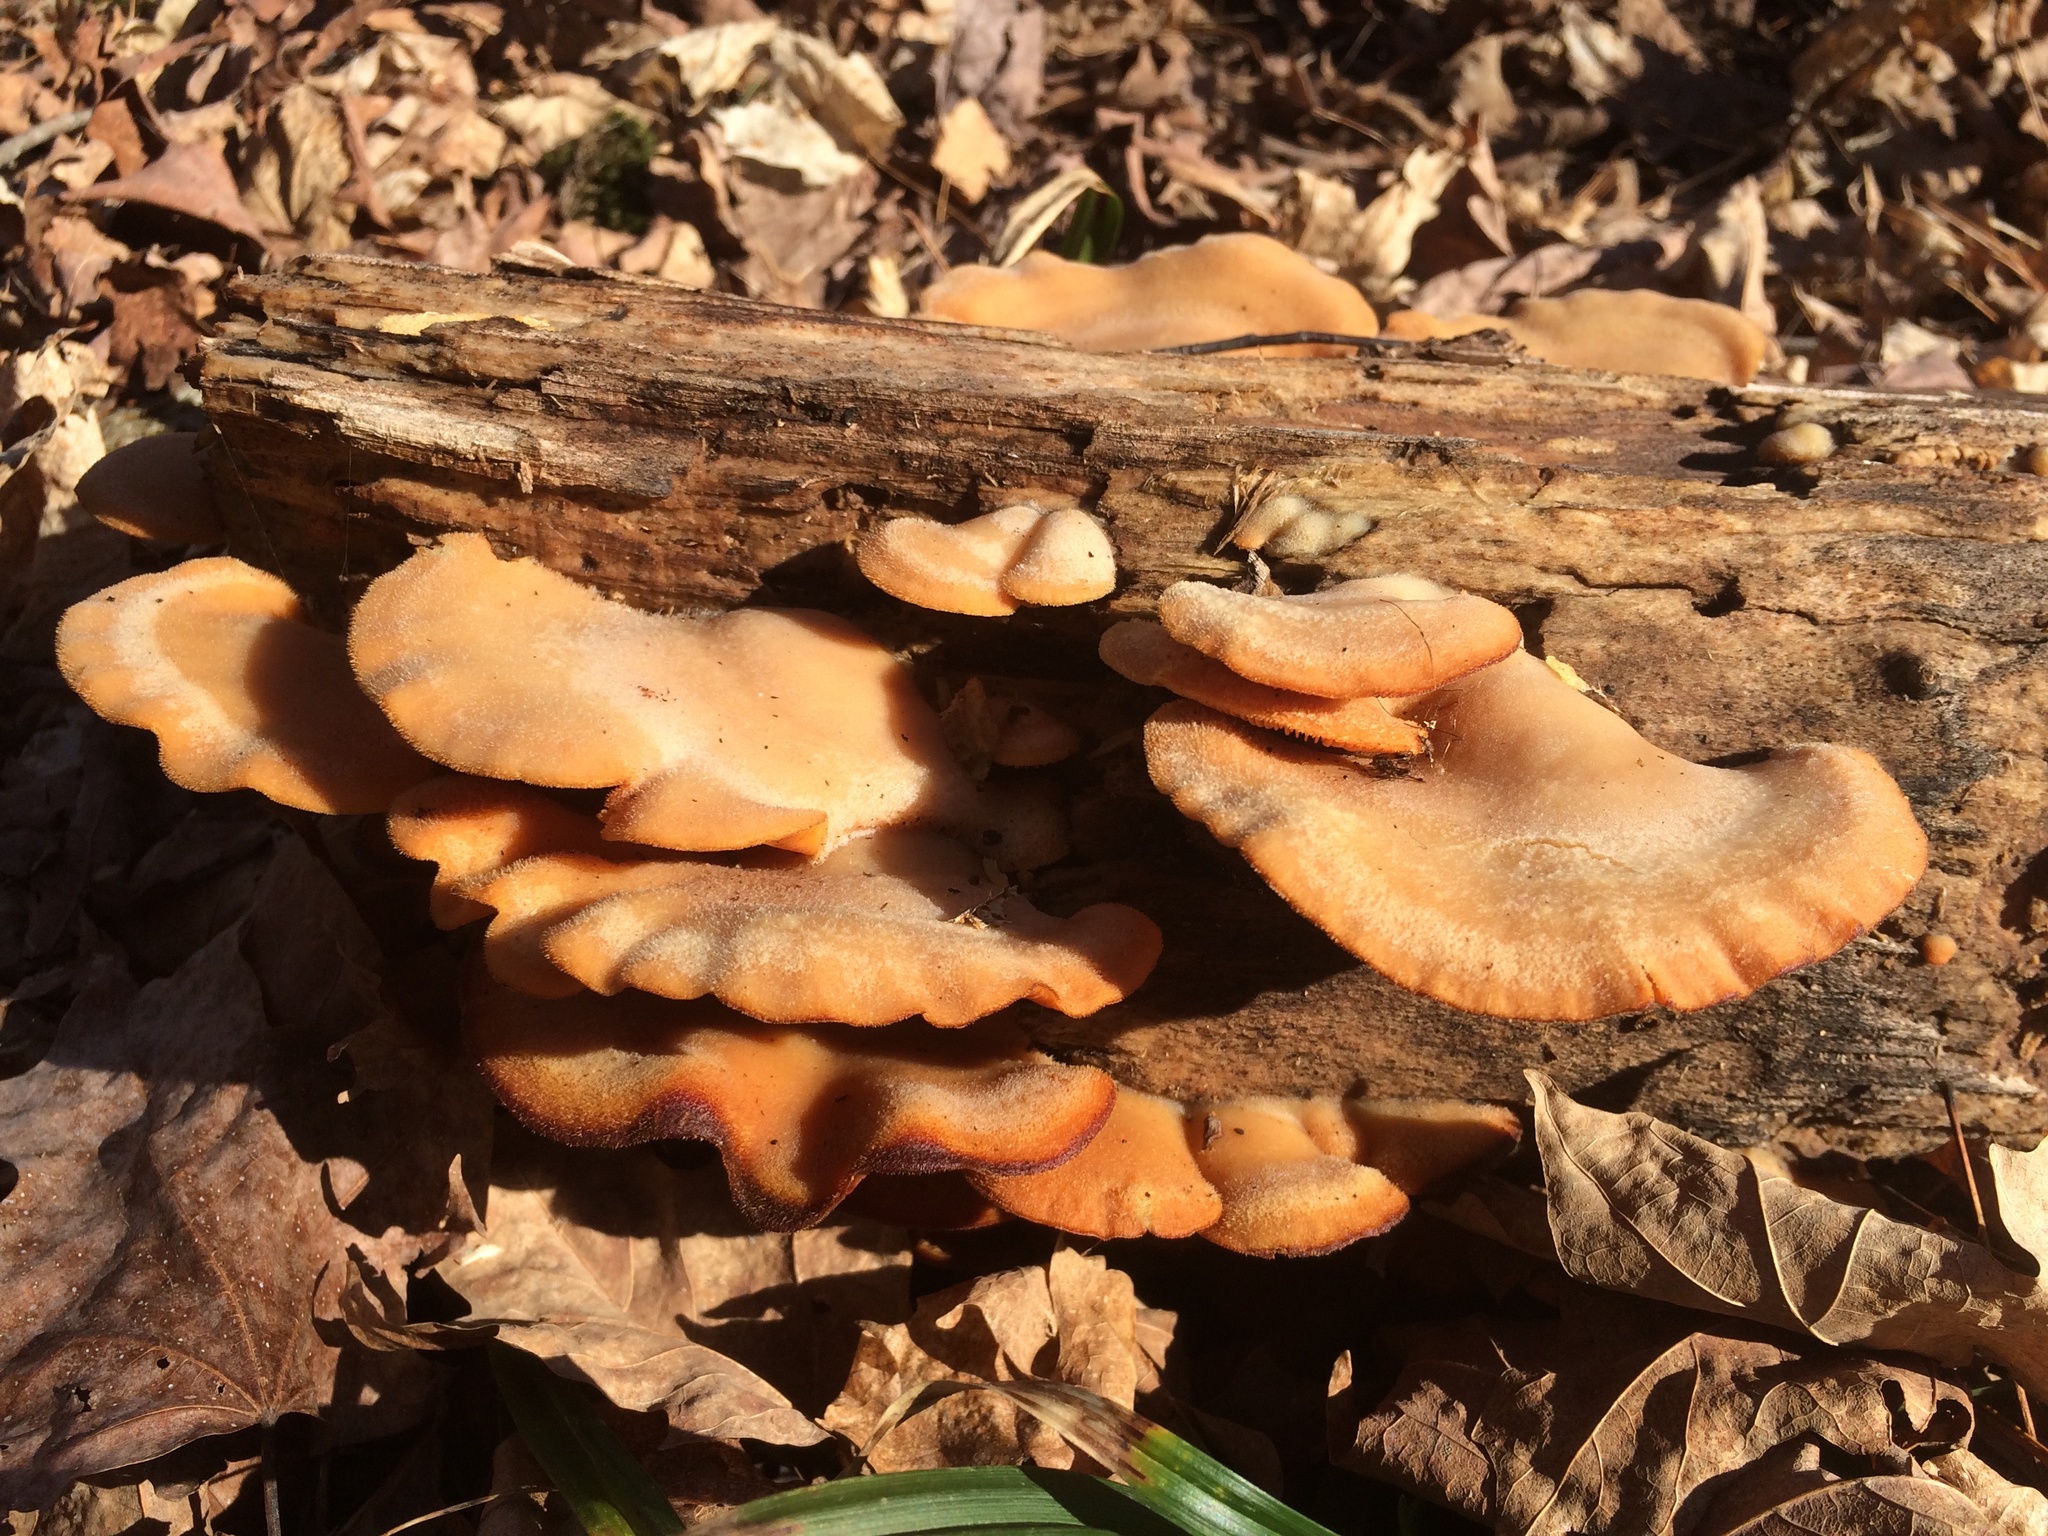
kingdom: Fungi
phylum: Basidiomycota
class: Agaricomycetes
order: Agaricales
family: Phyllotopsidaceae
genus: Phyllotopsis
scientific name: Phyllotopsis nidulans
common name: Orange mock oyster
